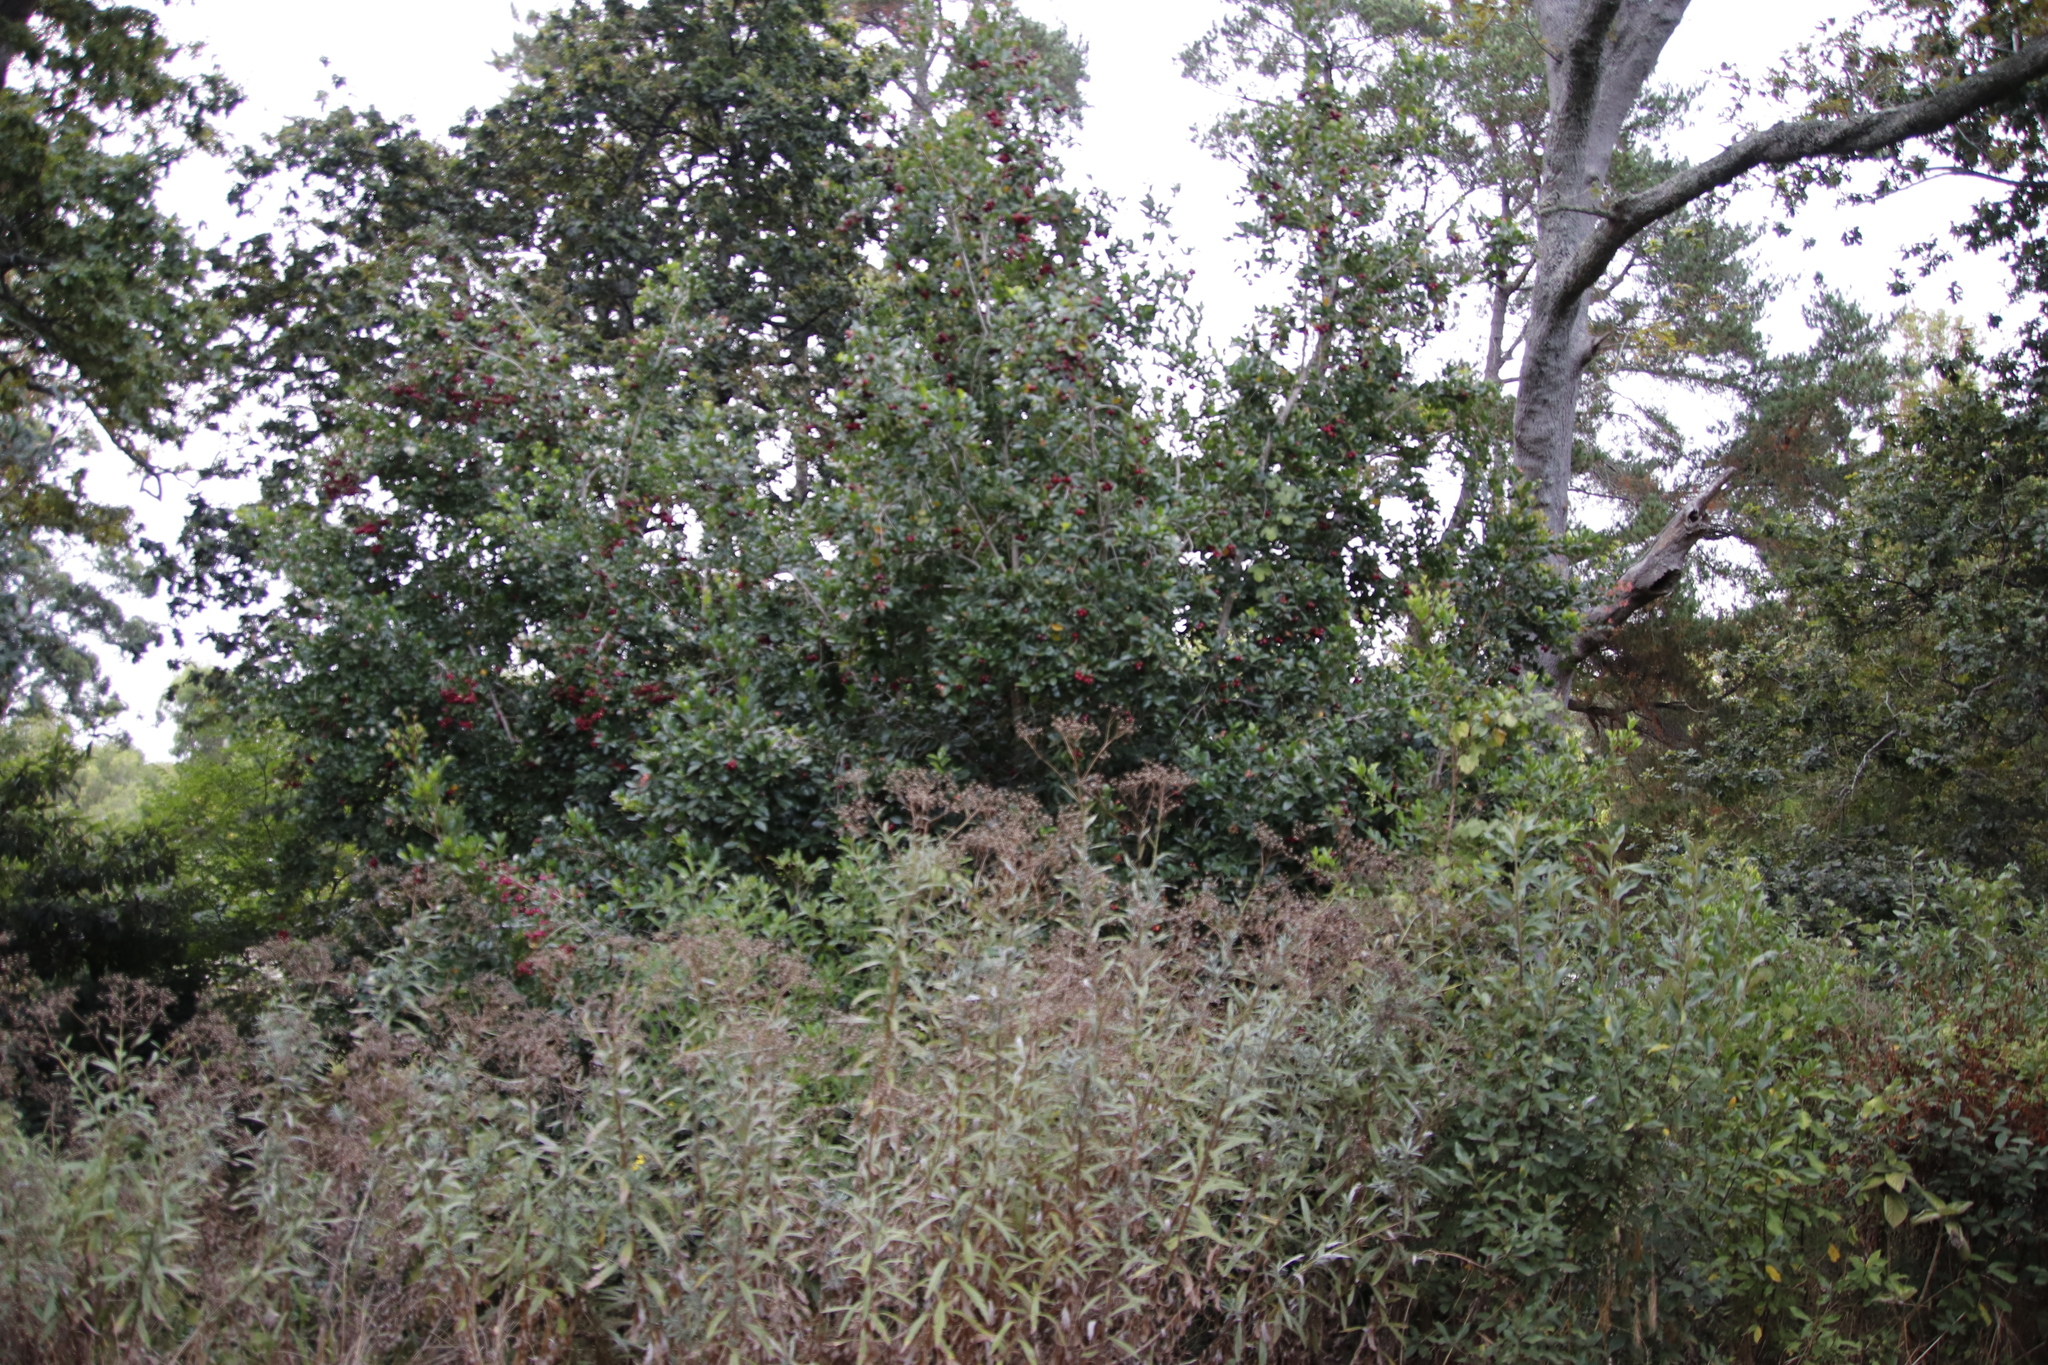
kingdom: Plantae
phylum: Tracheophyta
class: Magnoliopsida
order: Myrtales
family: Myrtaceae
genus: Syzygium
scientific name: Syzygium australe
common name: Australian brush-cherry
